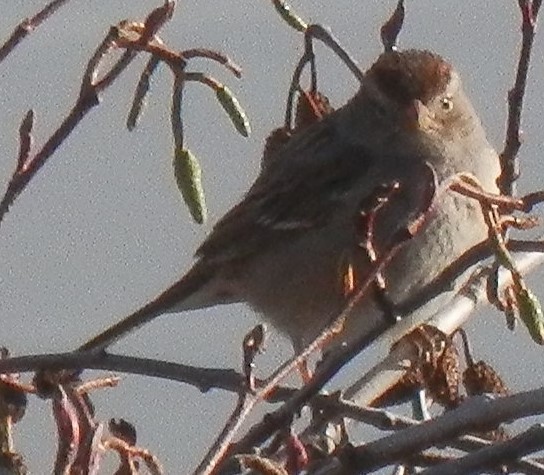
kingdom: Animalia
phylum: Chordata
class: Aves
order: Passeriformes
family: Passeridae
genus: Passer
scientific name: Passer domesticus
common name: House sparrow
